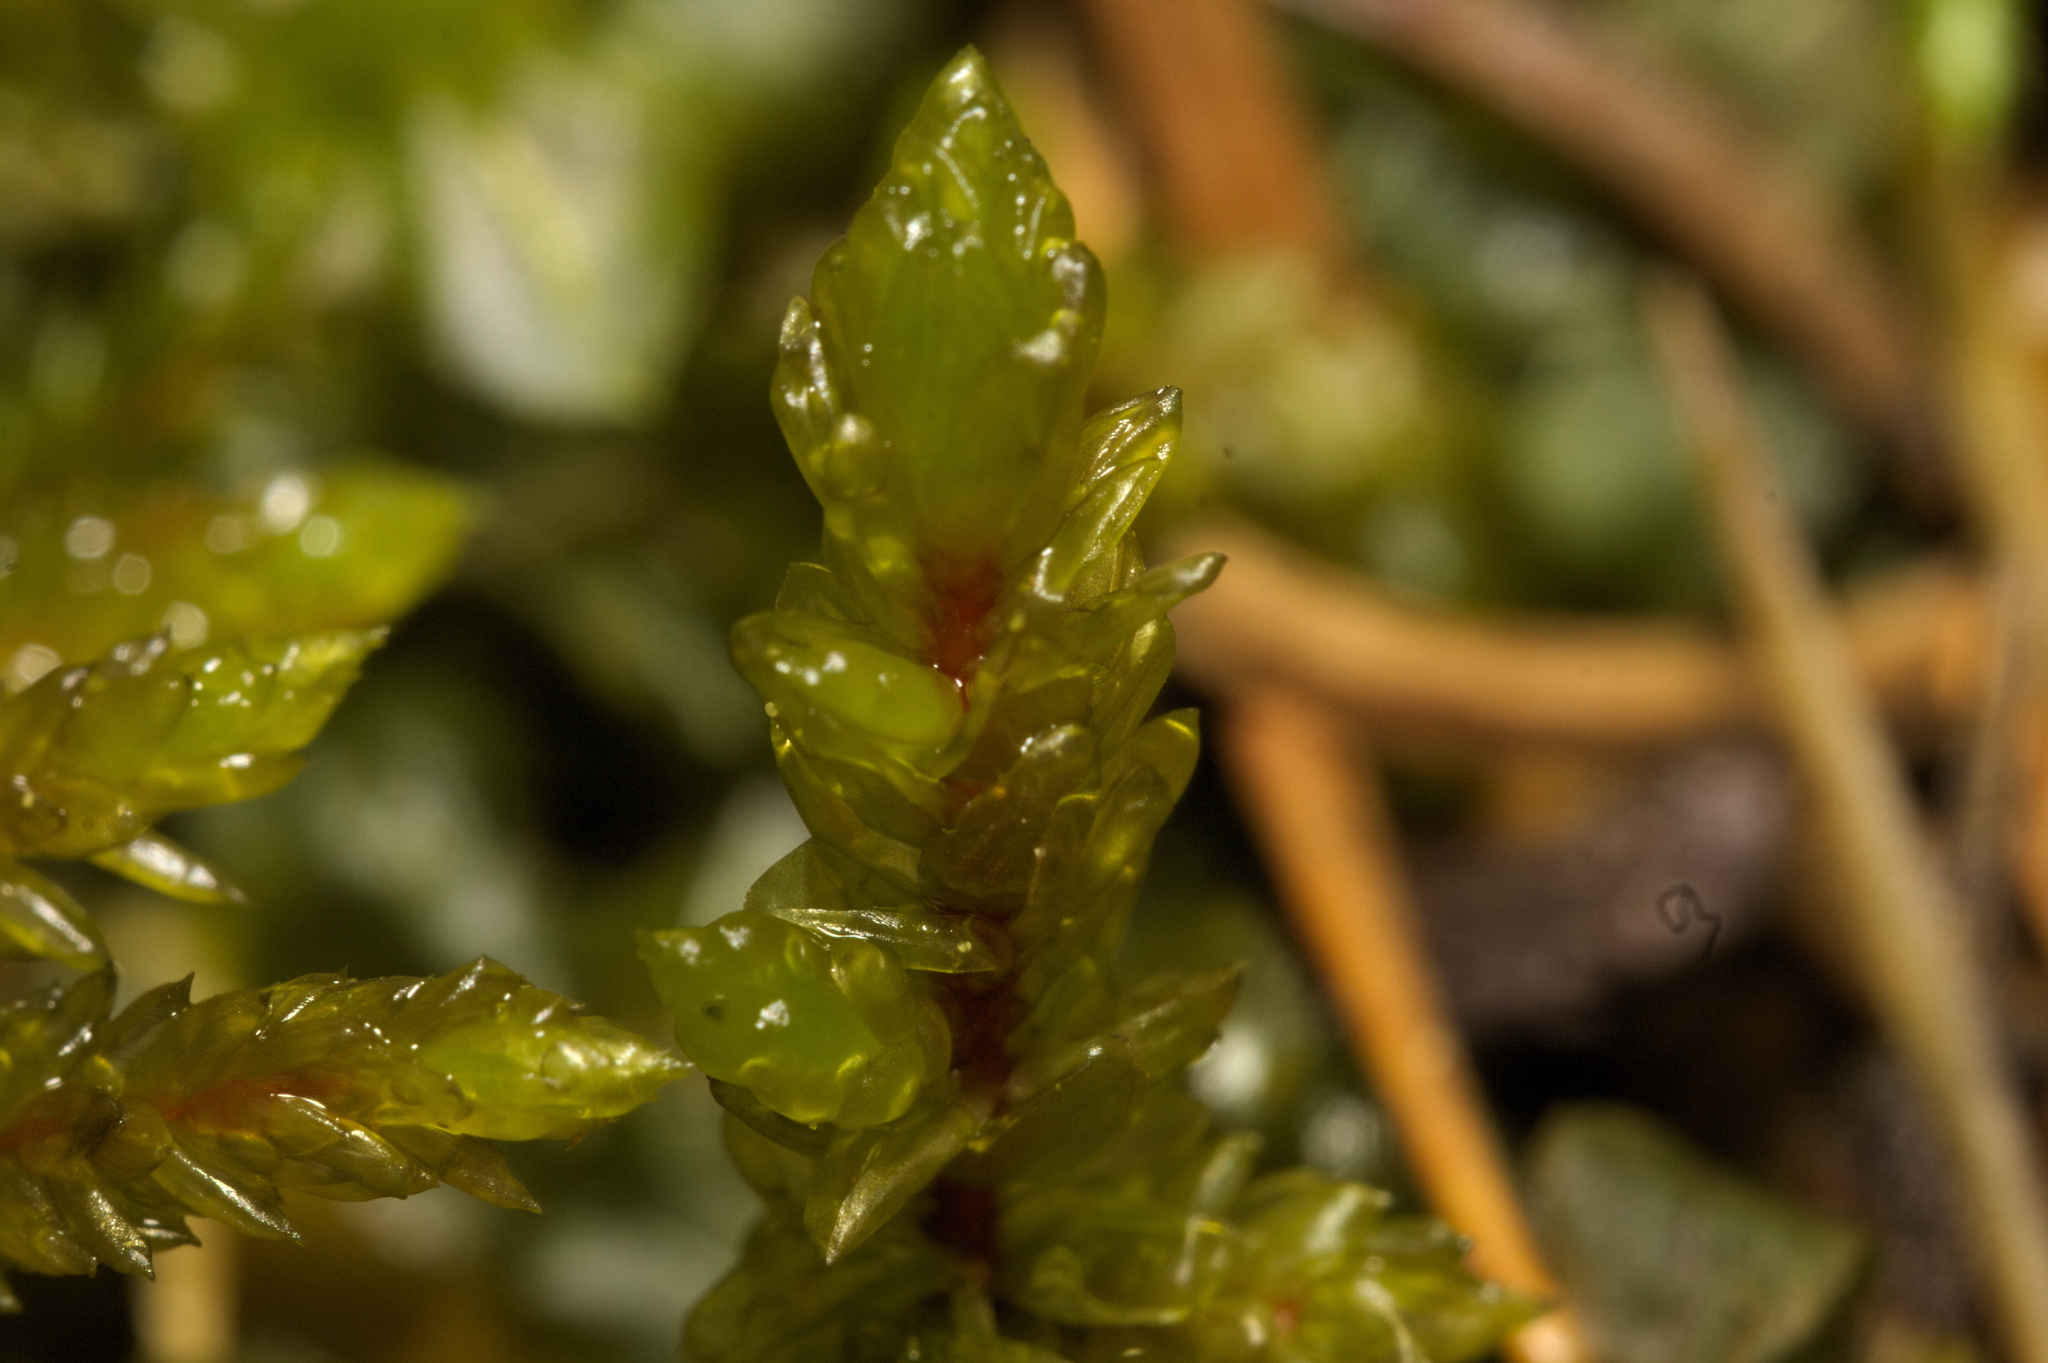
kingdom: Plantae
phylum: Bryophyta
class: Bryopsida
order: Hypnales
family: Hylocomiaceae
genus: Pleurozium
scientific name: Pleurozium schreberi
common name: Red-stemmed feather moss
